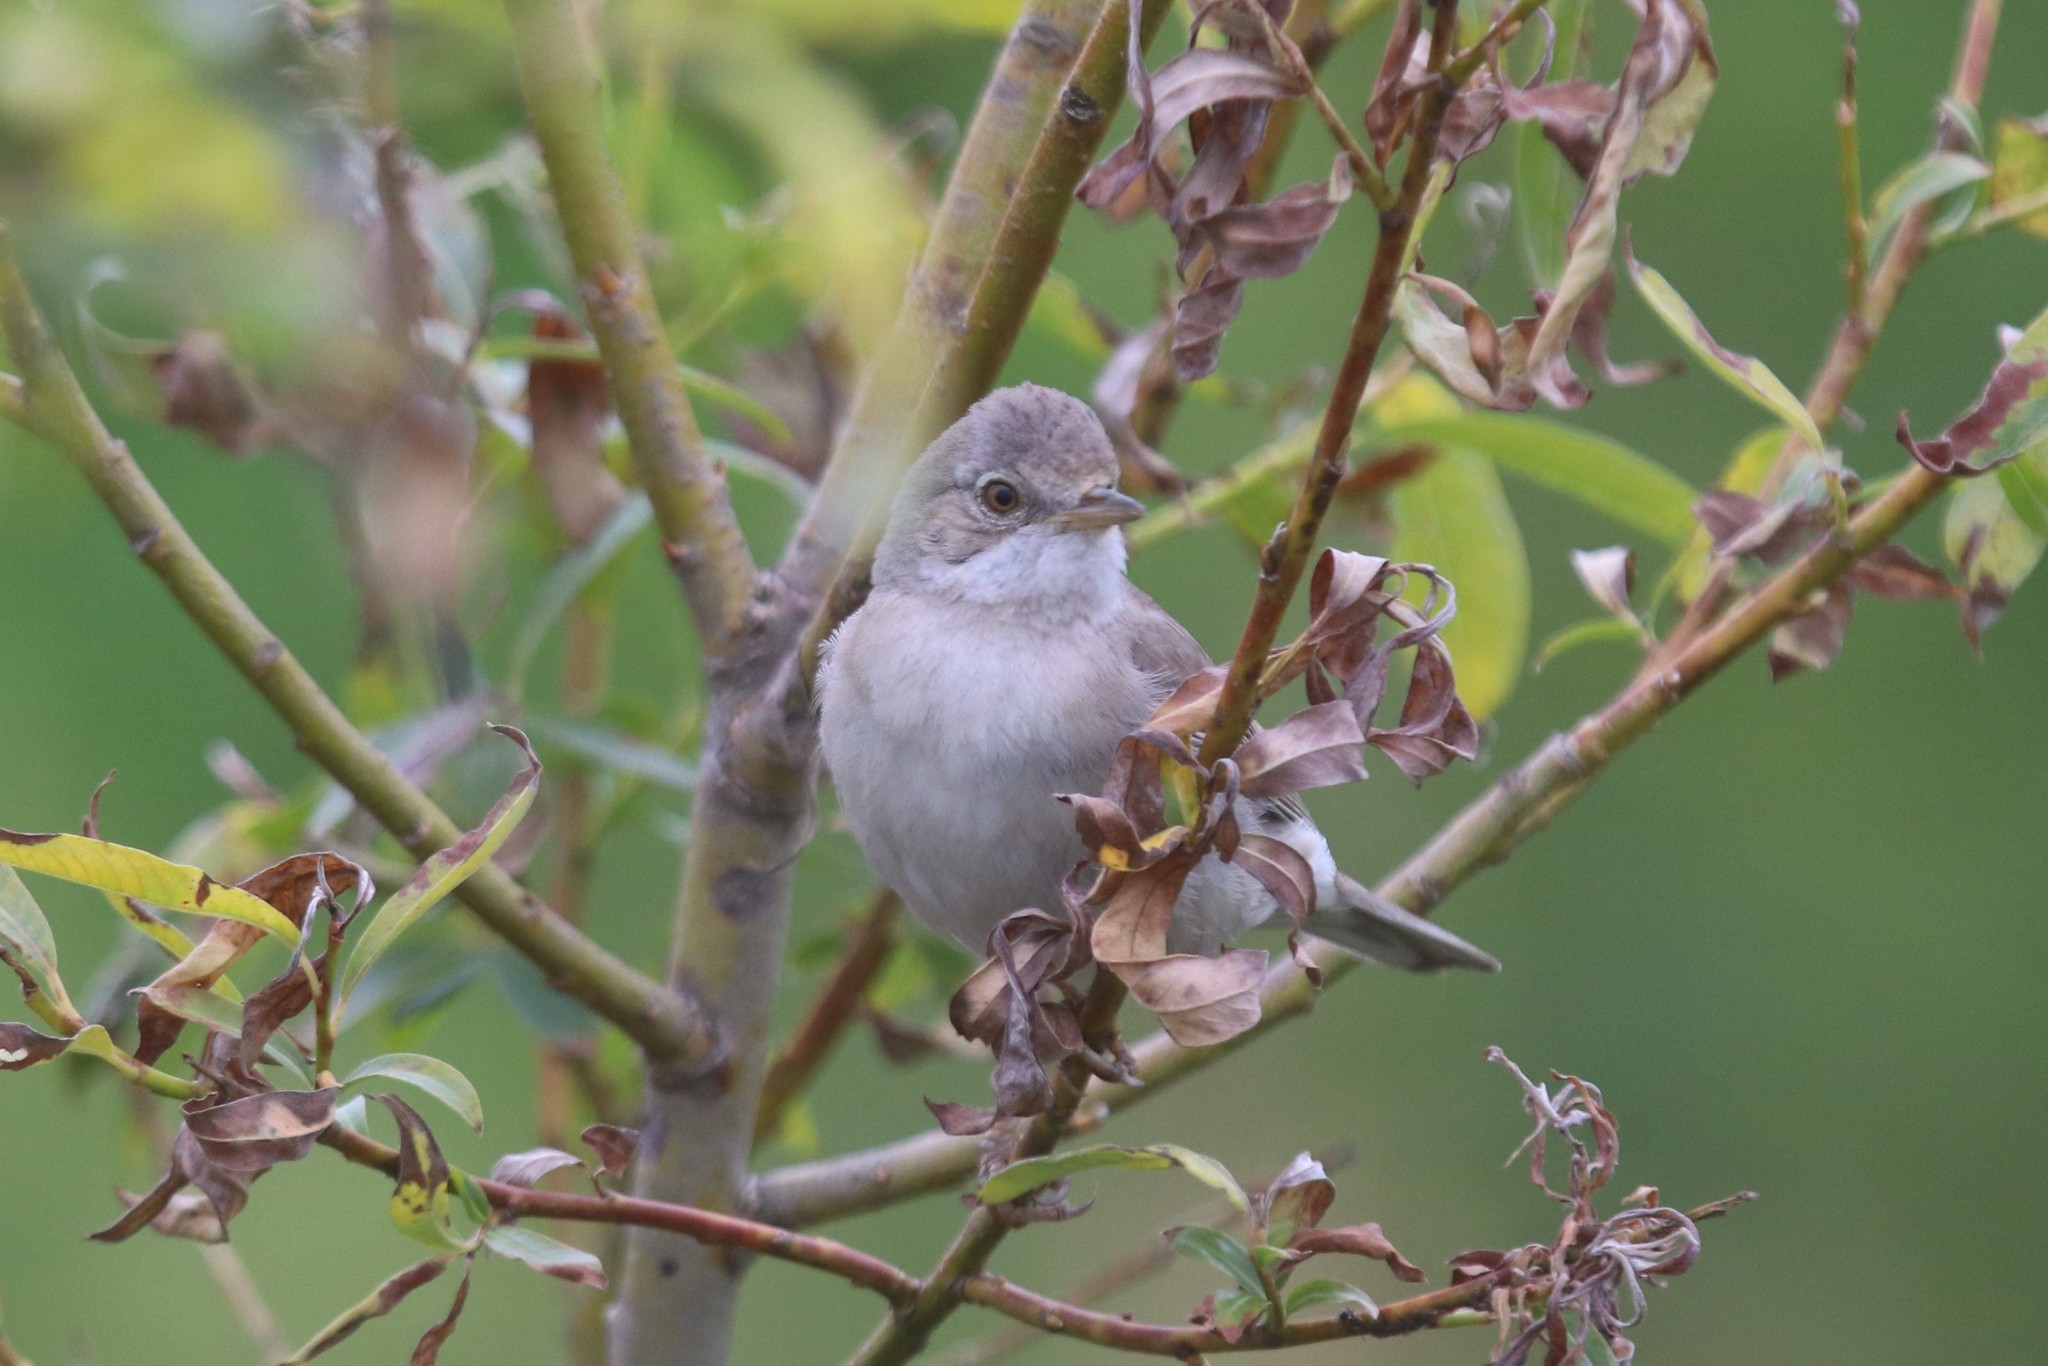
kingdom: Animalia
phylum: Chordata
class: Aves
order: Passeriformes
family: Sylviidae
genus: Sylvia
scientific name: Sylvia communis
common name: Common whitethroat
